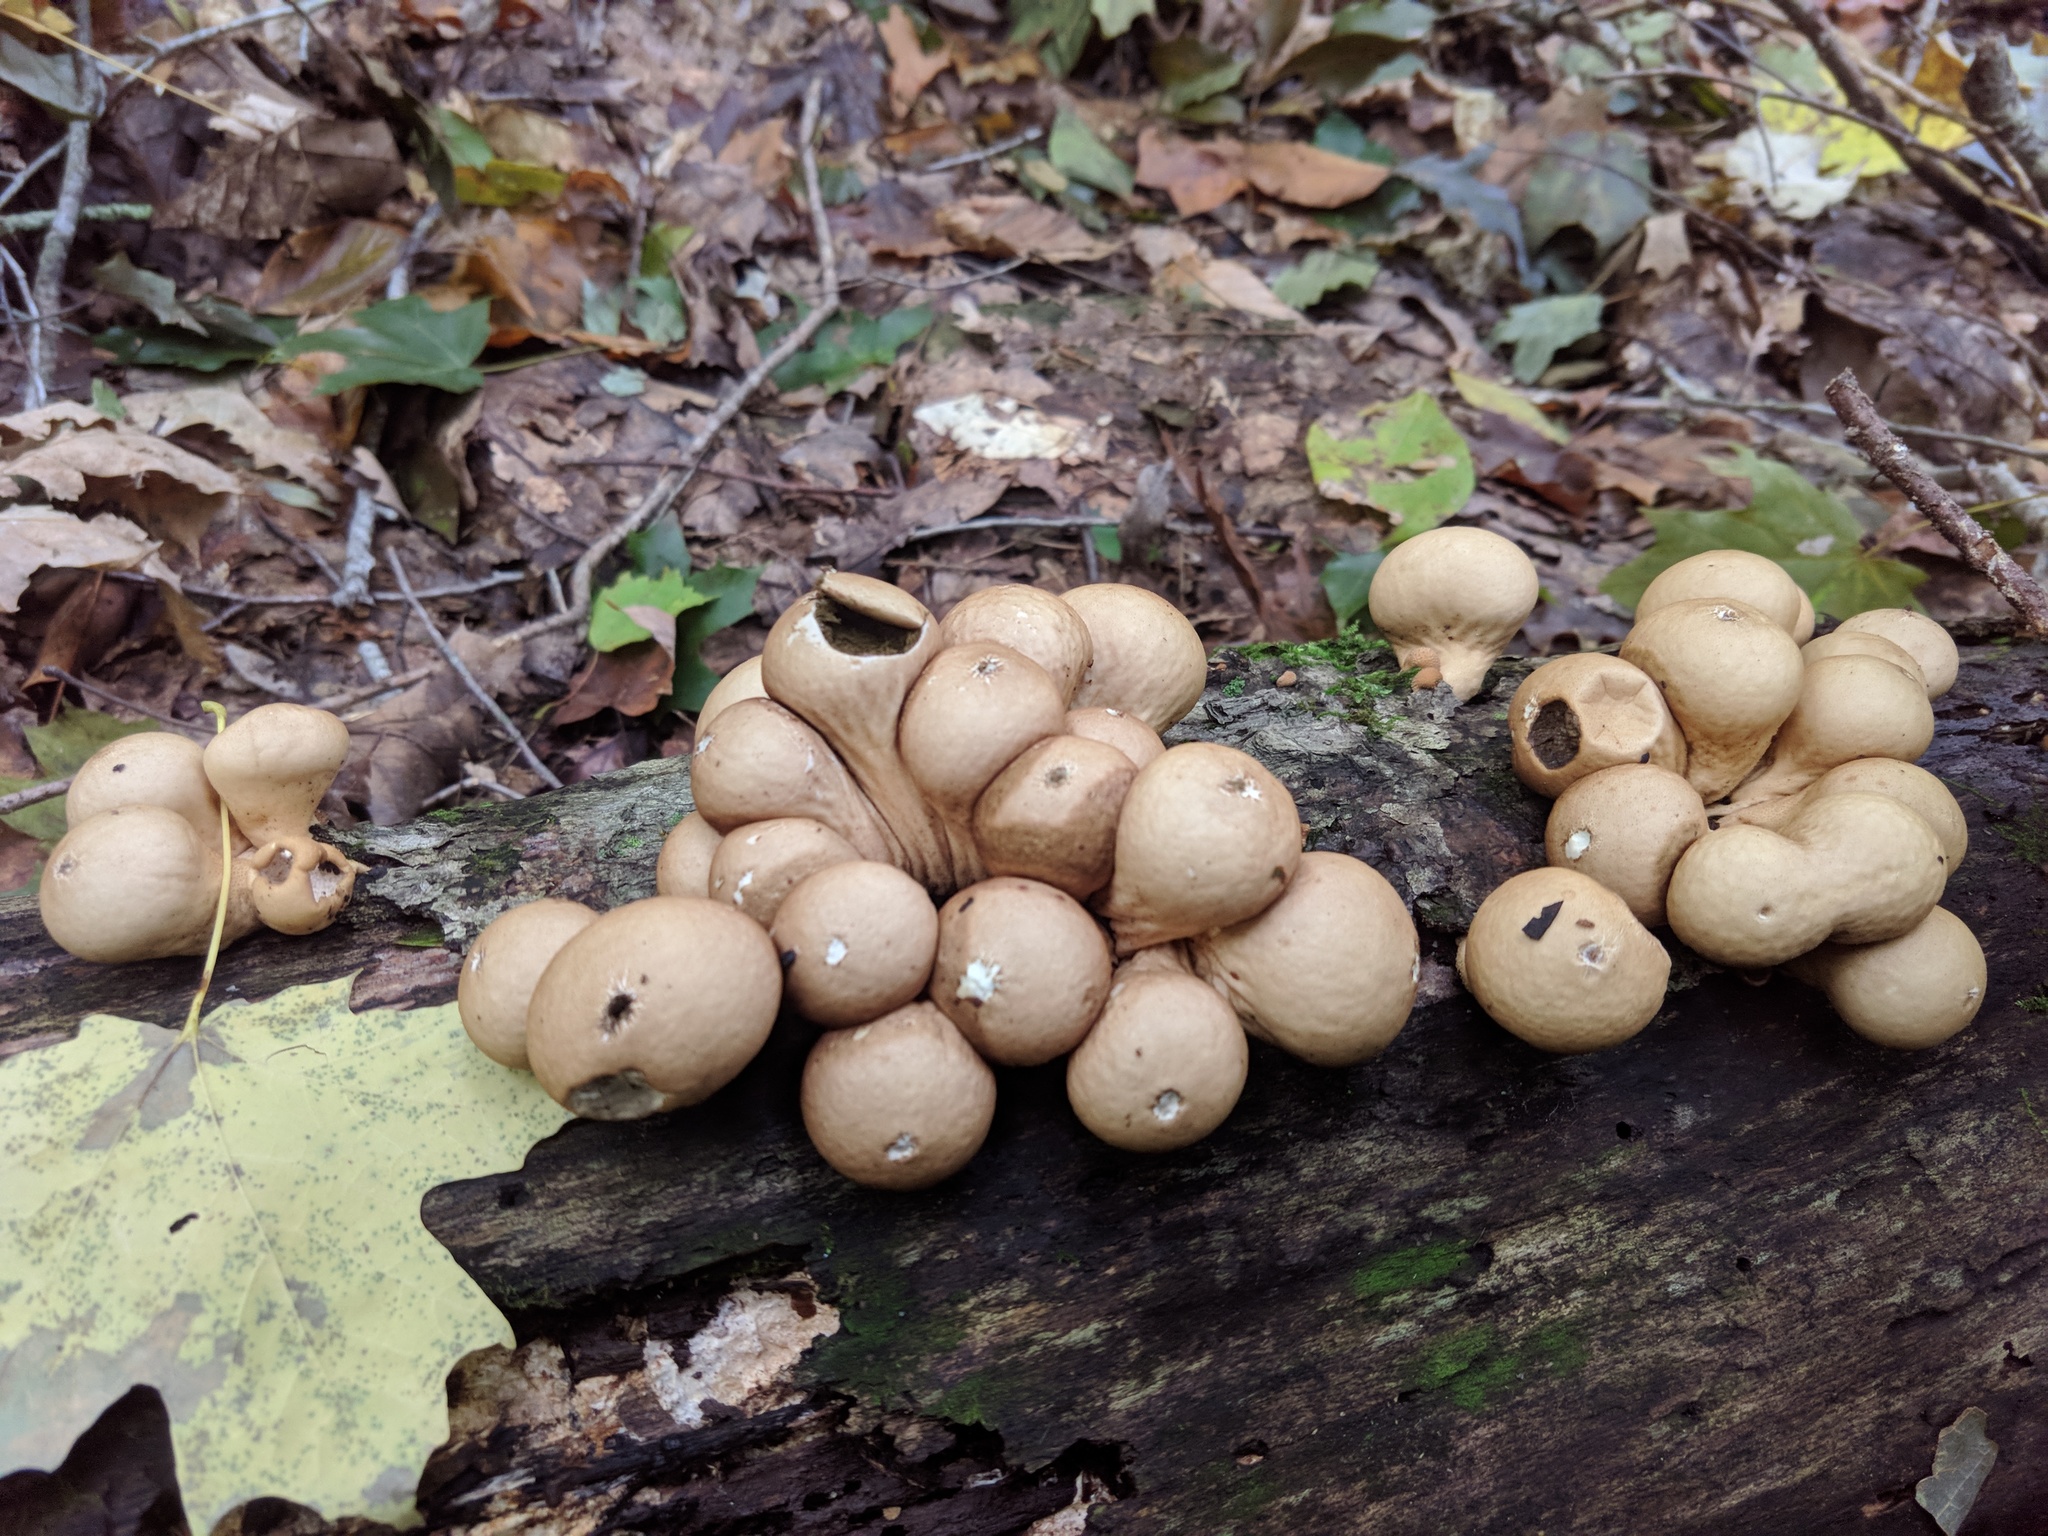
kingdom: Fungi
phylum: Basidiomycota
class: Agaricomycetes
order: Agaricales
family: Lycoperdaceae
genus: Apioperdon
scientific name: Apioperdon pyriforme
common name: Pear-shaped puffball
